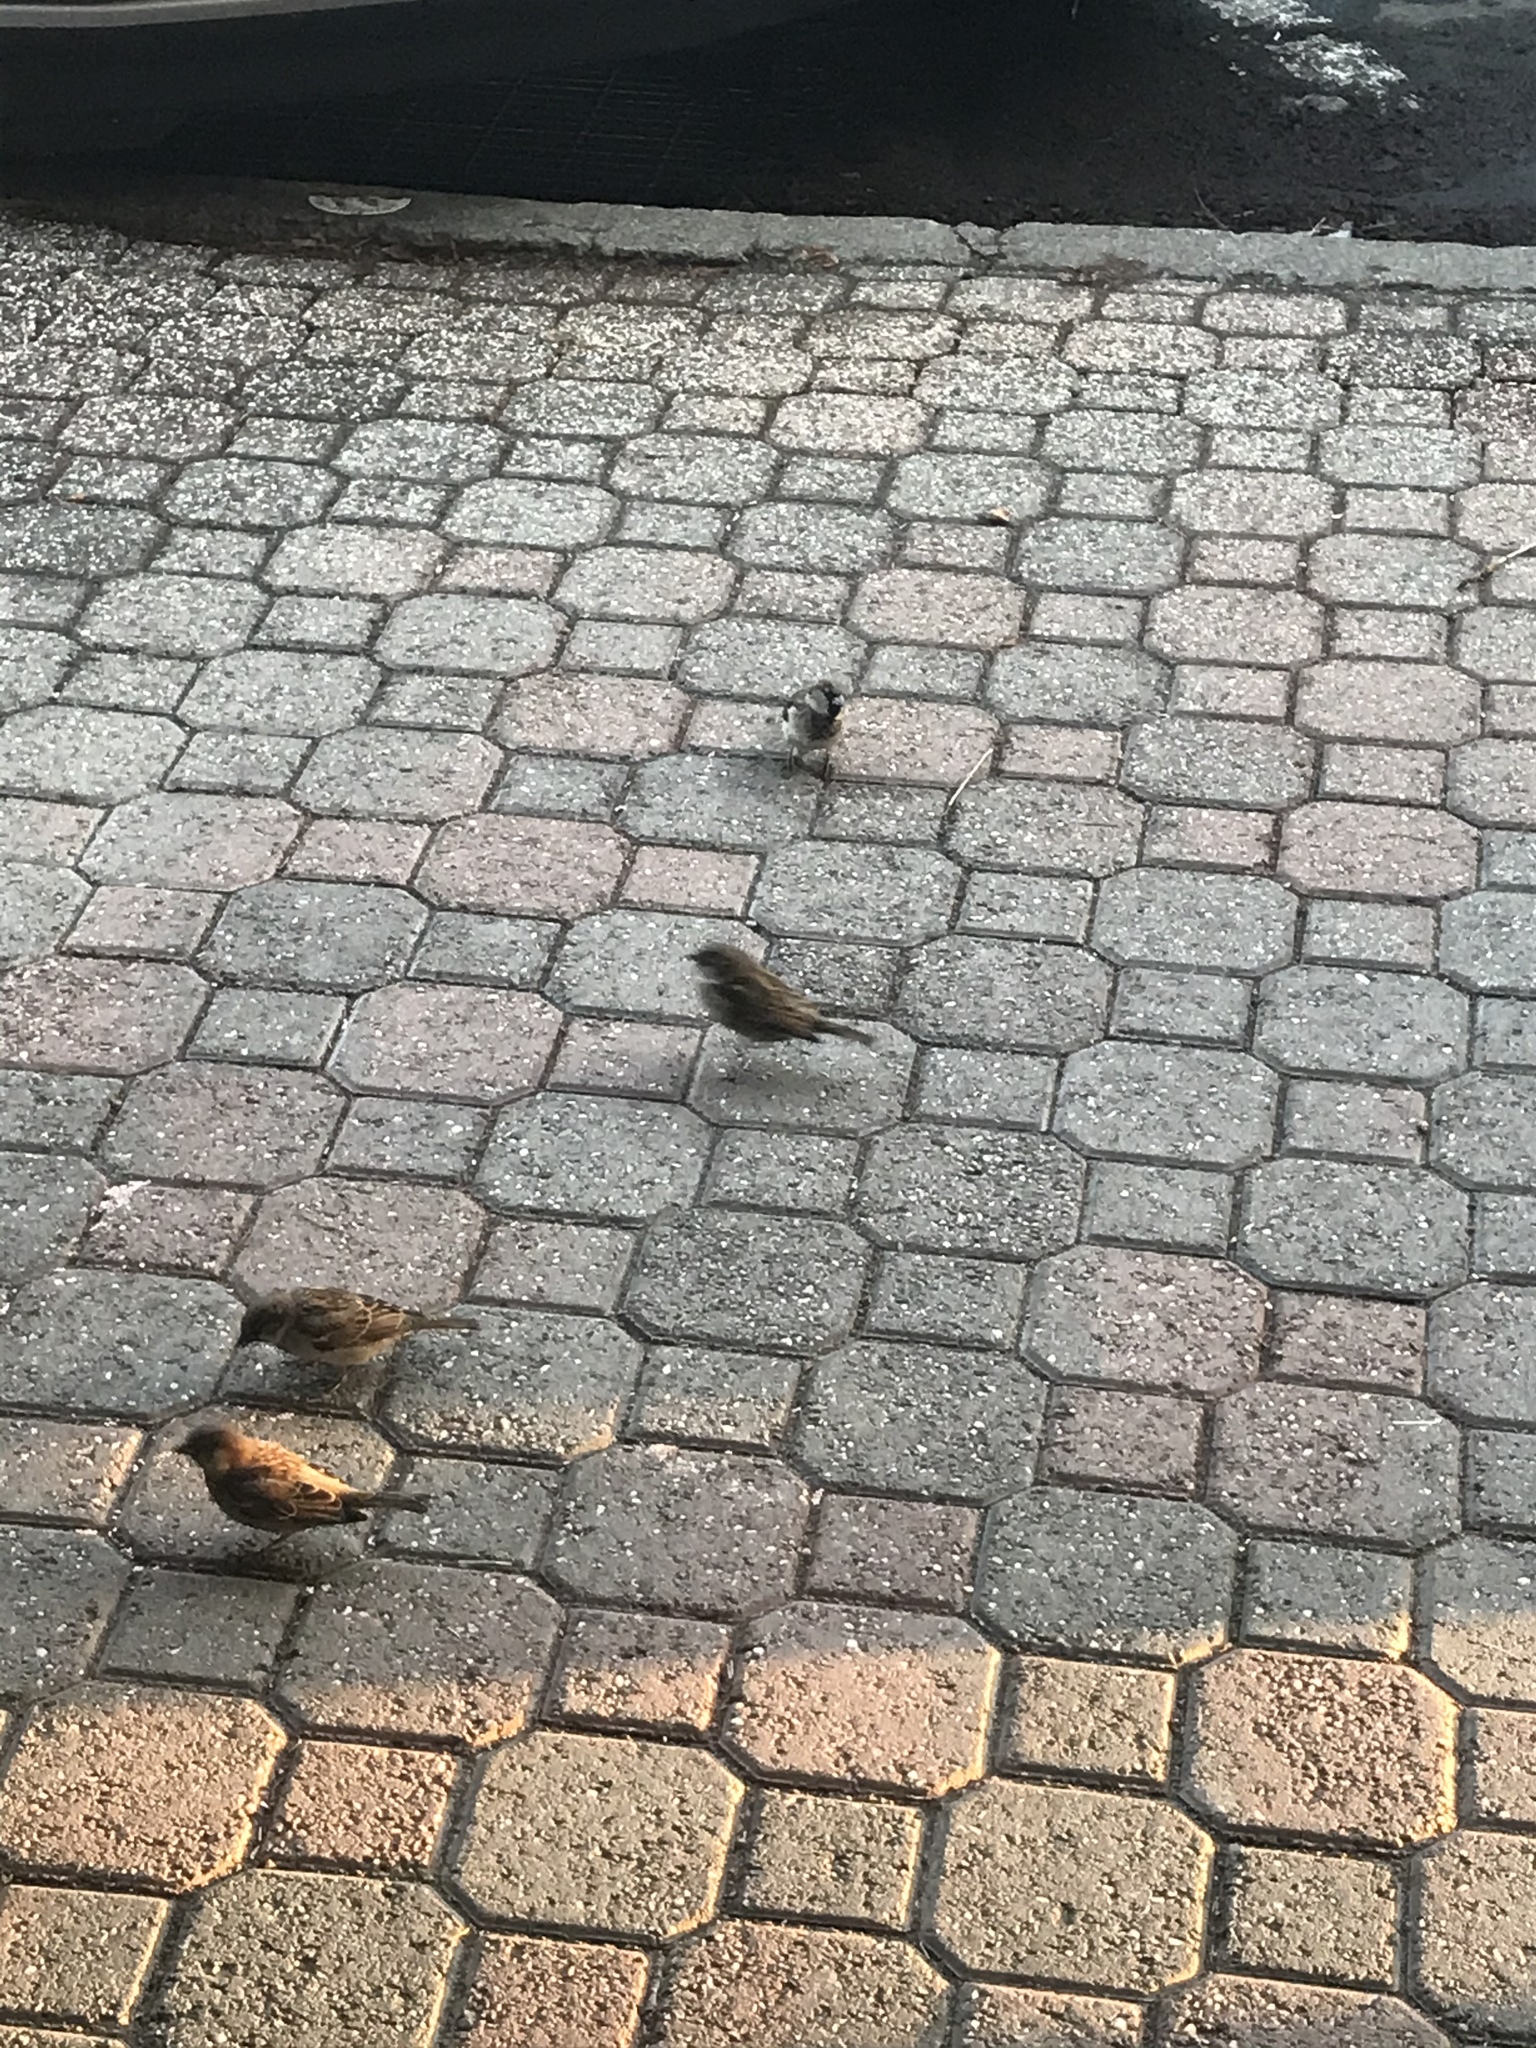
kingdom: Animalia
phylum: Chordata
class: Aves
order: Passeriformes
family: Passeridae
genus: Passer
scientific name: Passer domesticus
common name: House sparrow
